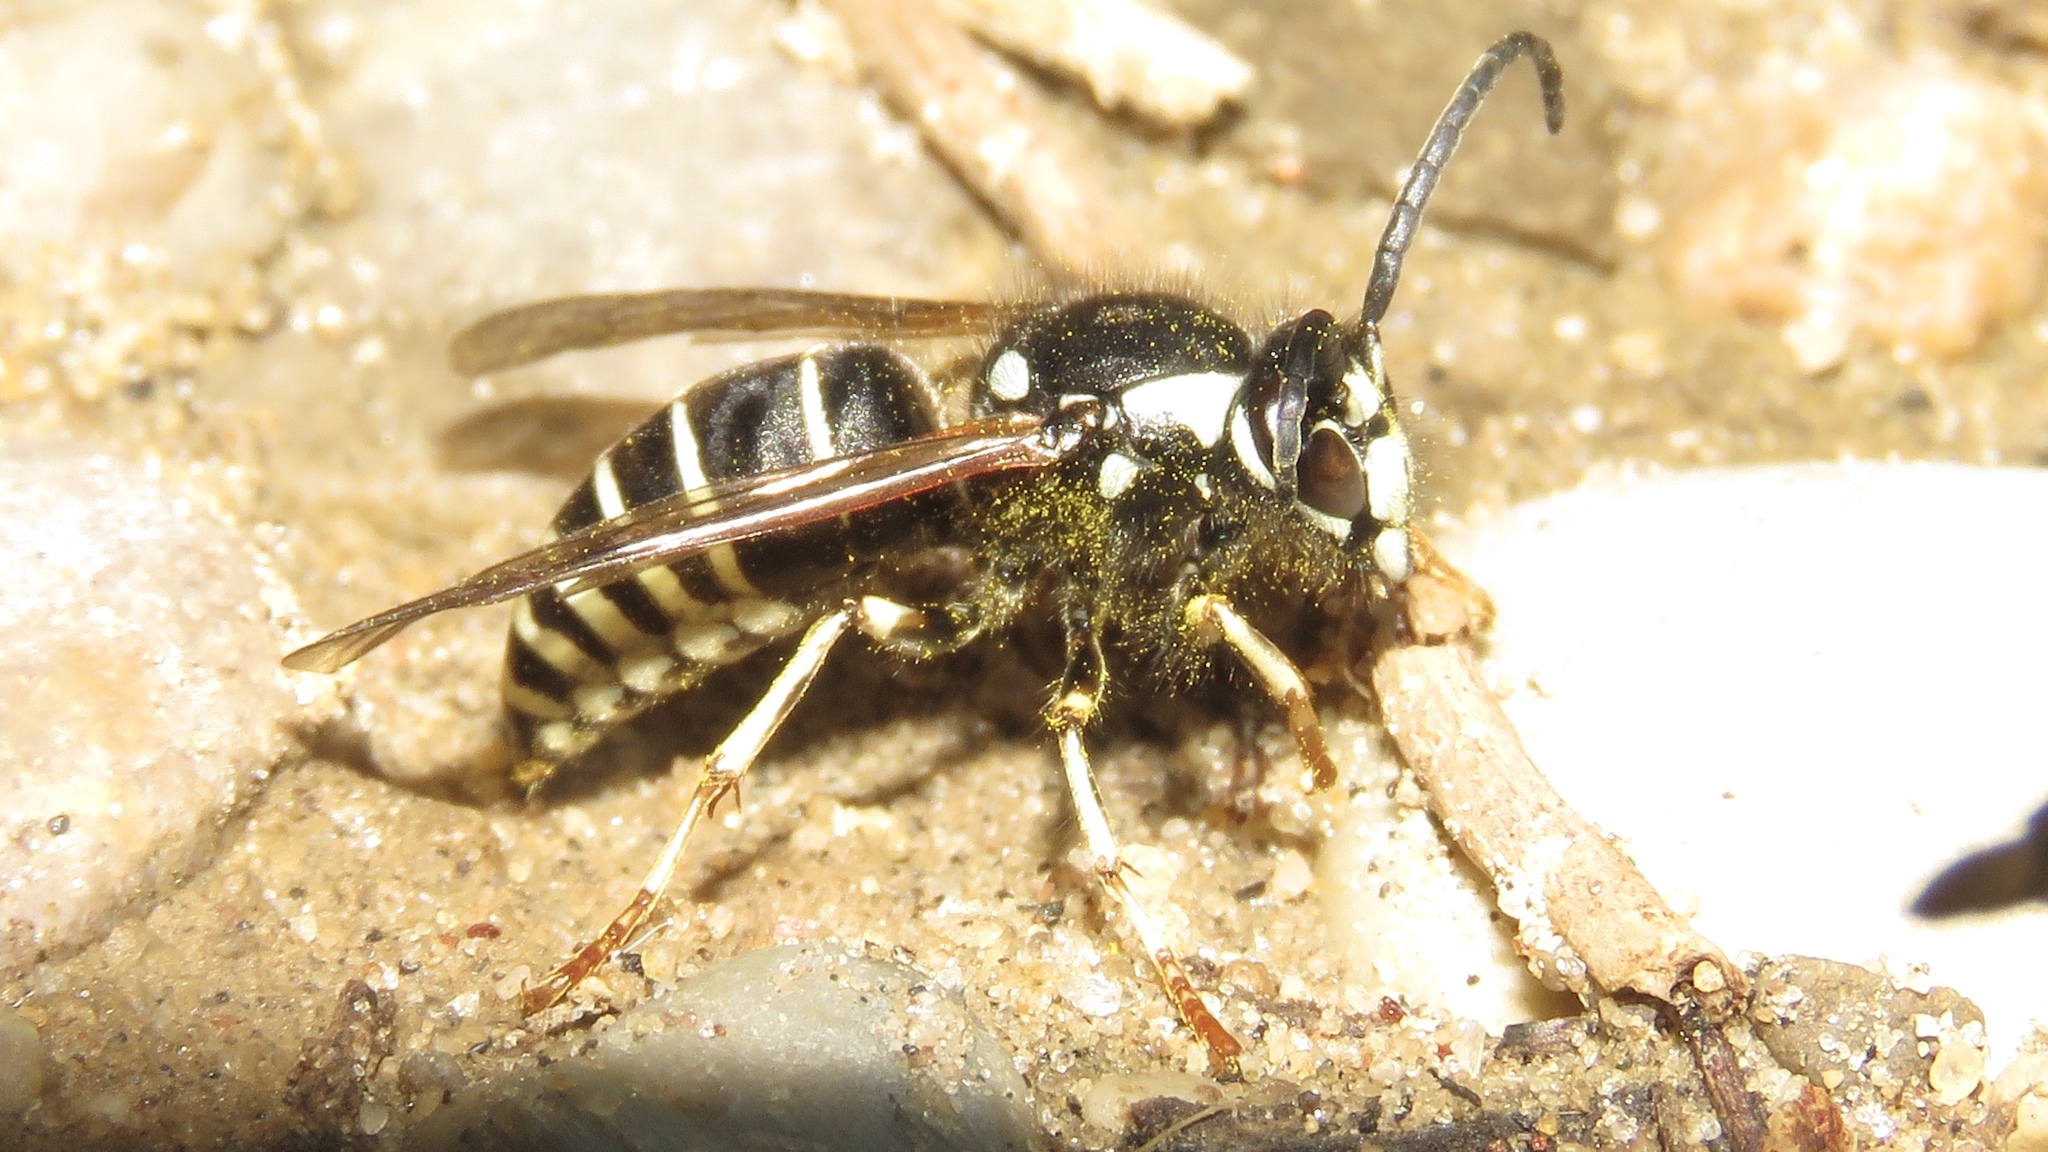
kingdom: Animalia
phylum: Arthropoda
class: Insecta
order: Hymenoptera
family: Vespidae
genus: Dolichovespula
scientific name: Dolichovespula adulterina
